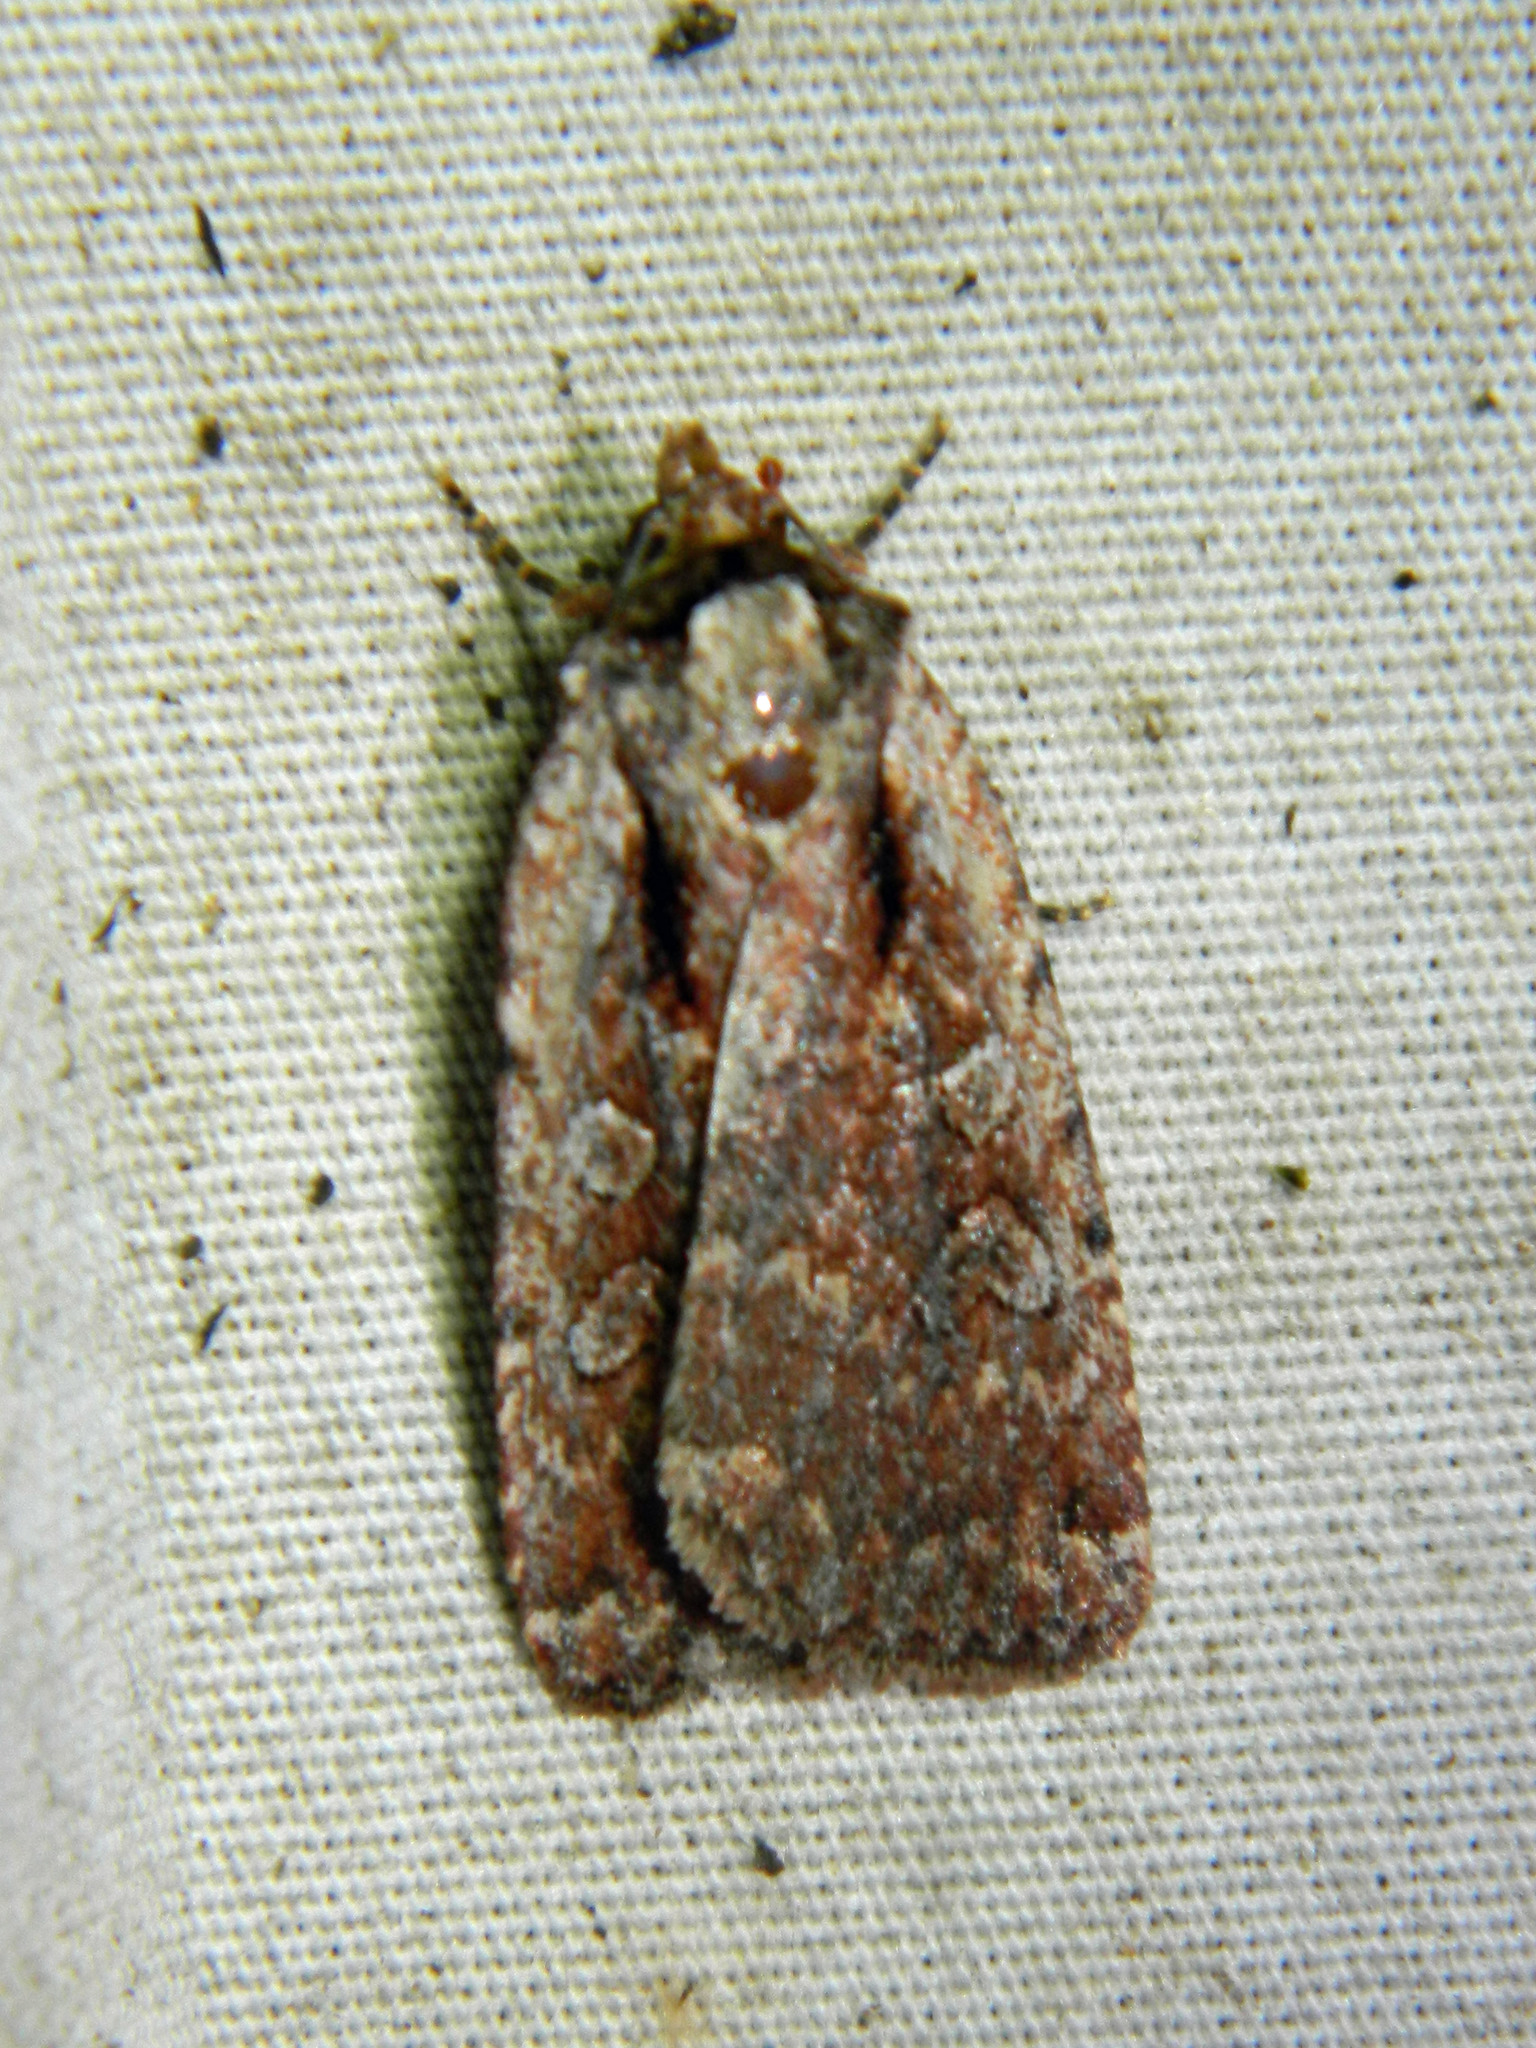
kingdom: Animalia
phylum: Arthropoda
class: Insecta
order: Lepidoptera
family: Noctuidae
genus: Eueretagrotis
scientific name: Eueretagrotis attentus
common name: Attentive dart
